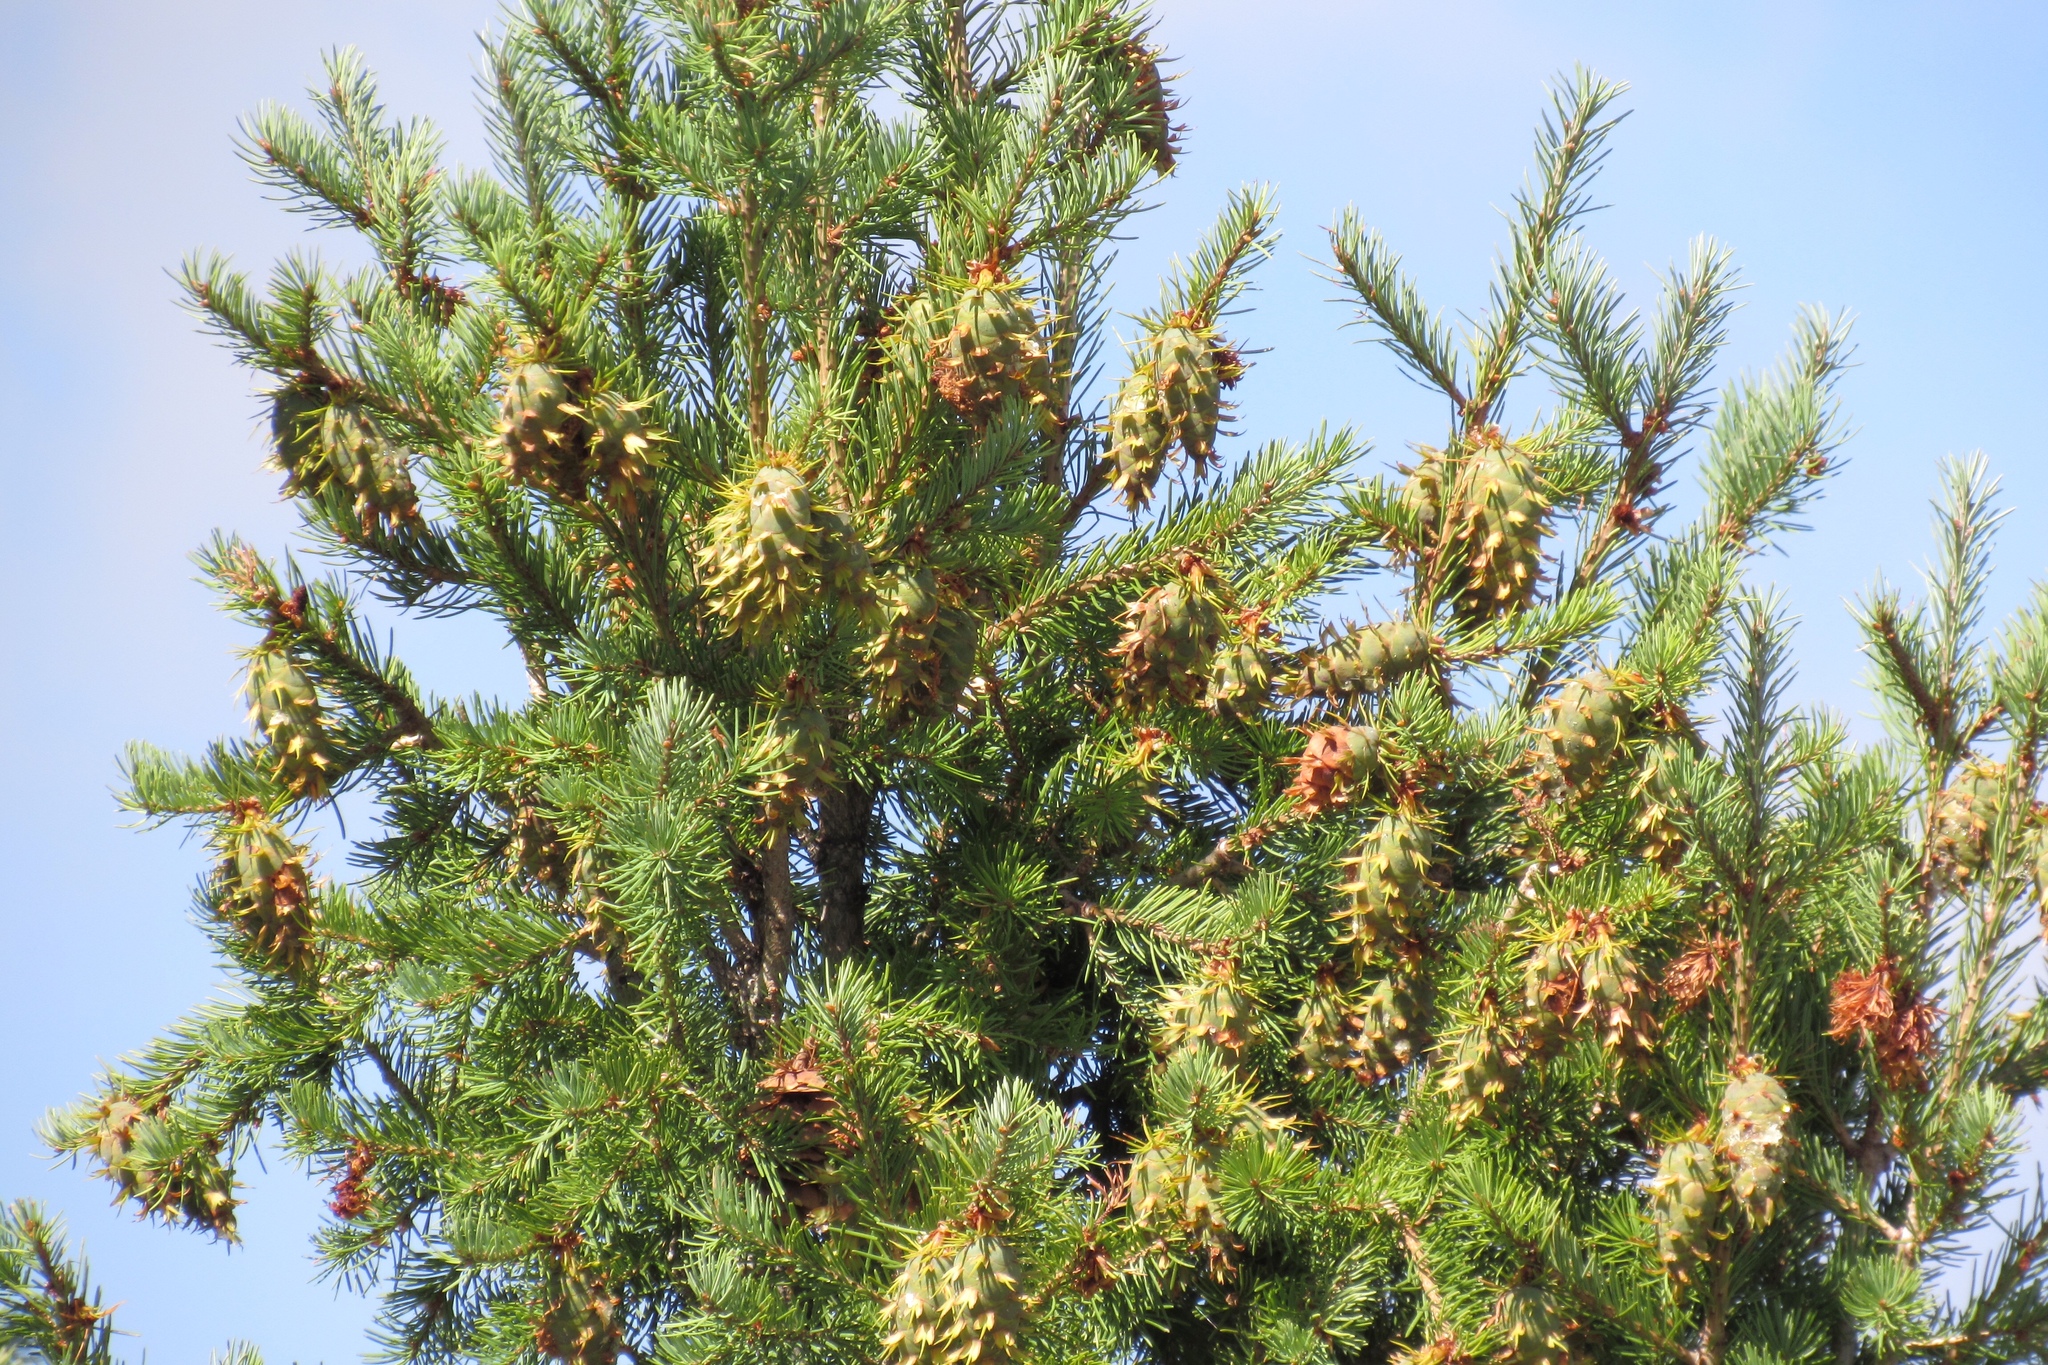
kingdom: Plantae
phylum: Tracheophyta
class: Pinopsida
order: Pinales
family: Pinaceae
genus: Pseudotsuga
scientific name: Pseudotsuga menziesii
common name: Douglas fir
